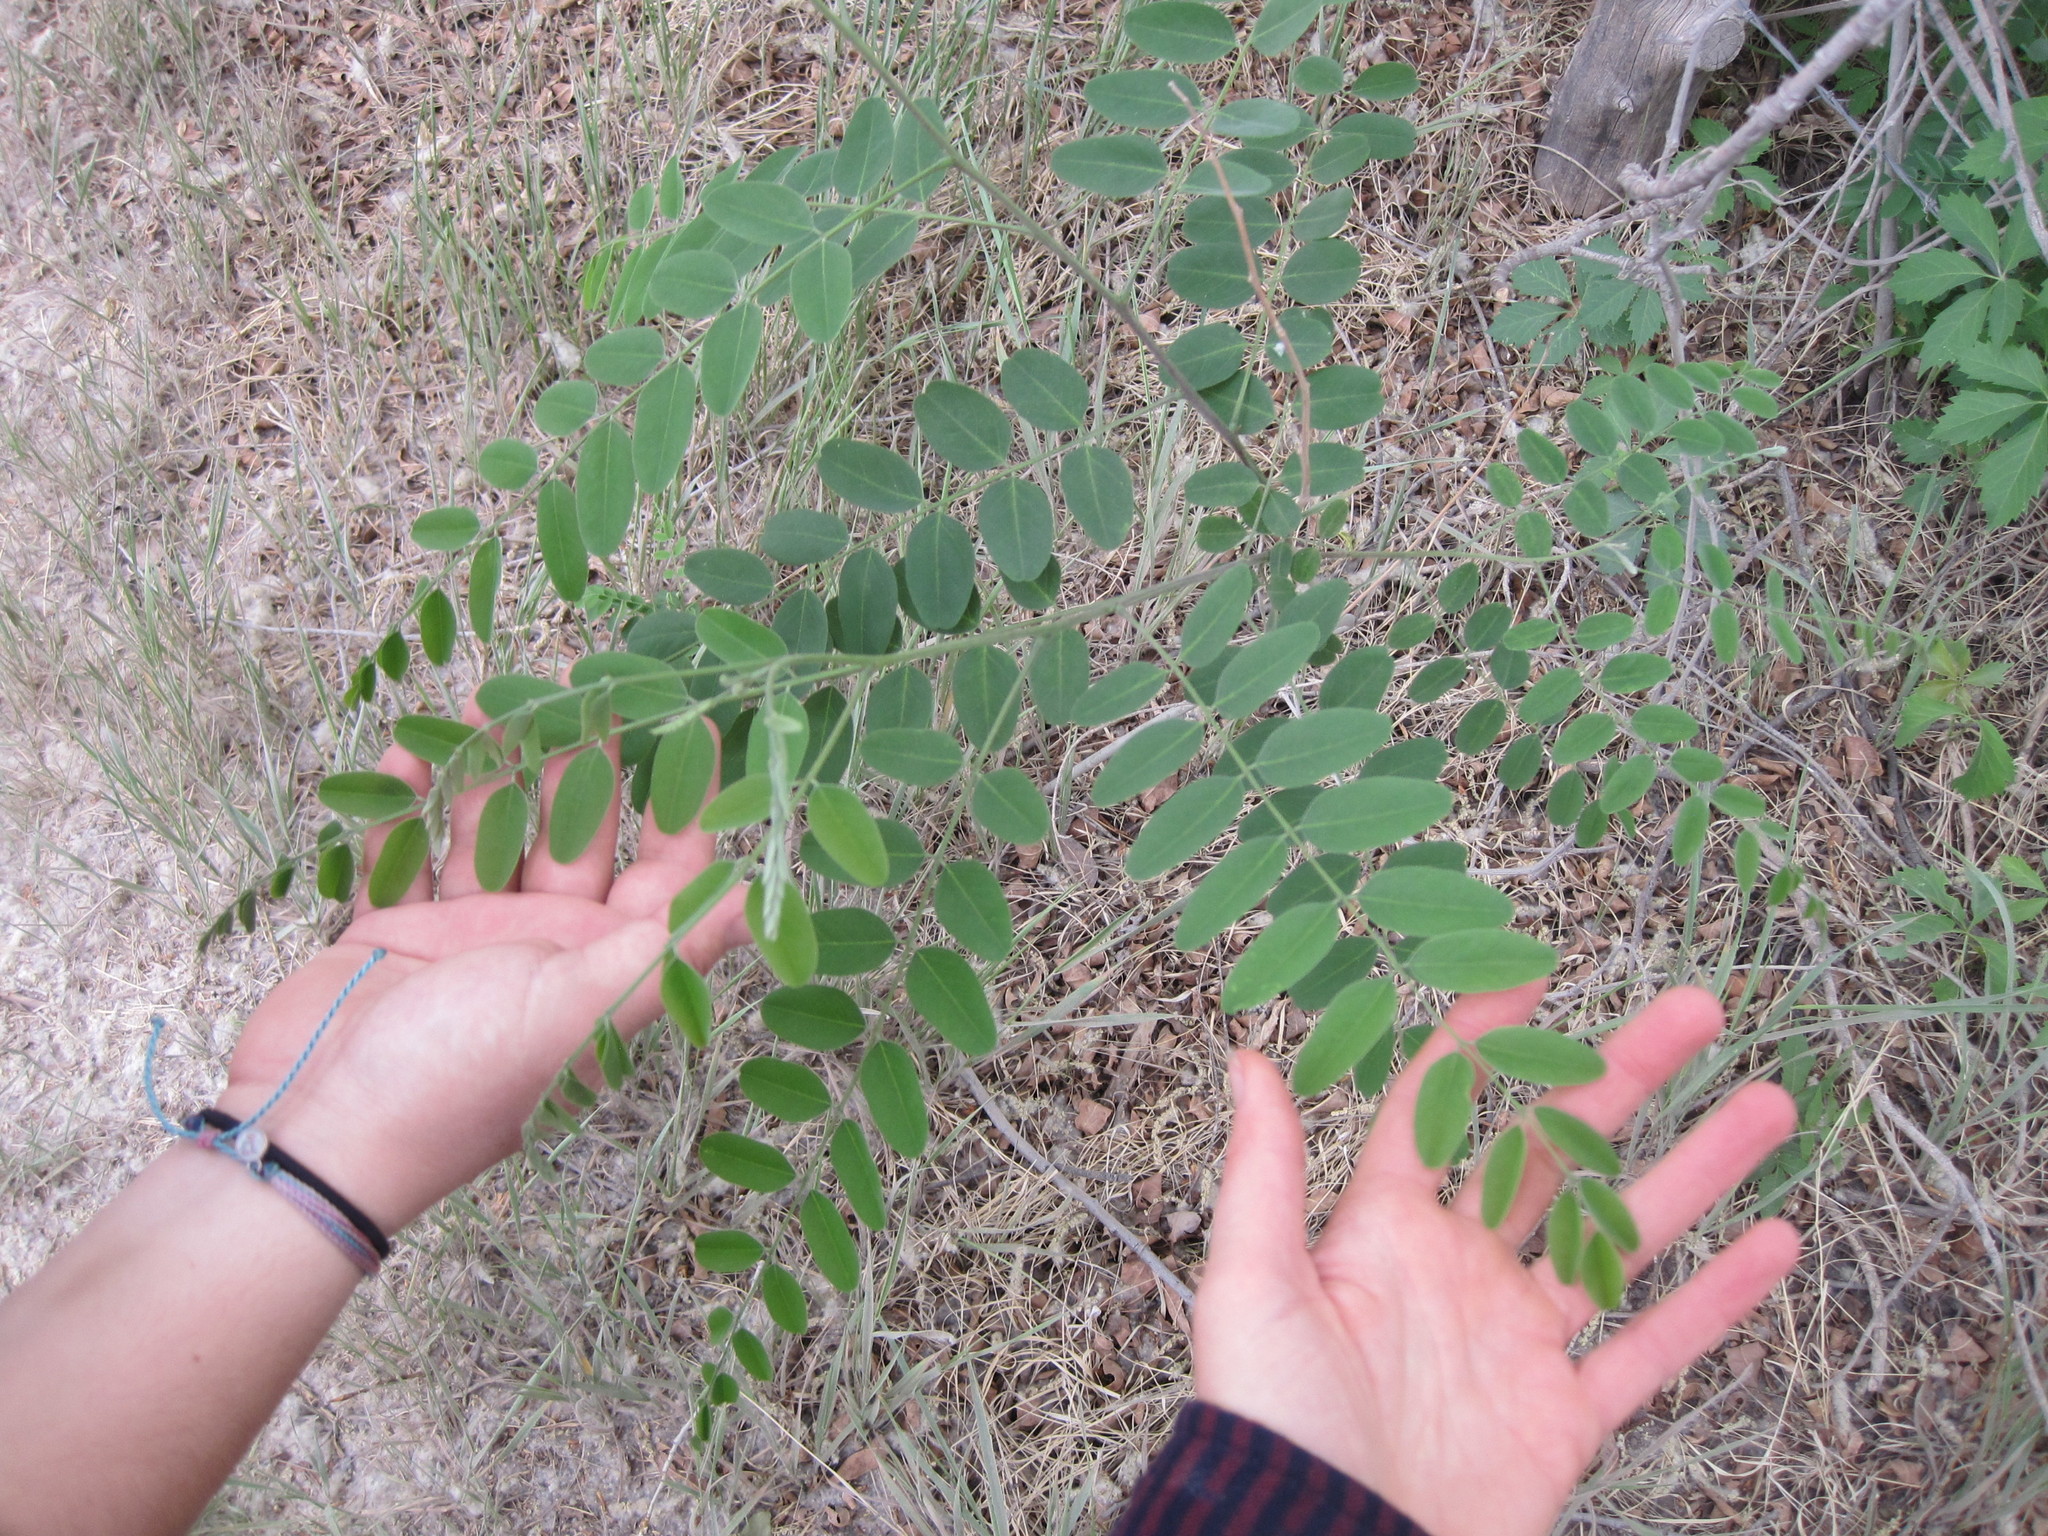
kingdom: Plantae
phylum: Tracheophyta
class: Magnoliopsida
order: Fabales
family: Fabaceae
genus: Amorpha
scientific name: Amorpha fruticosa
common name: False indigo
